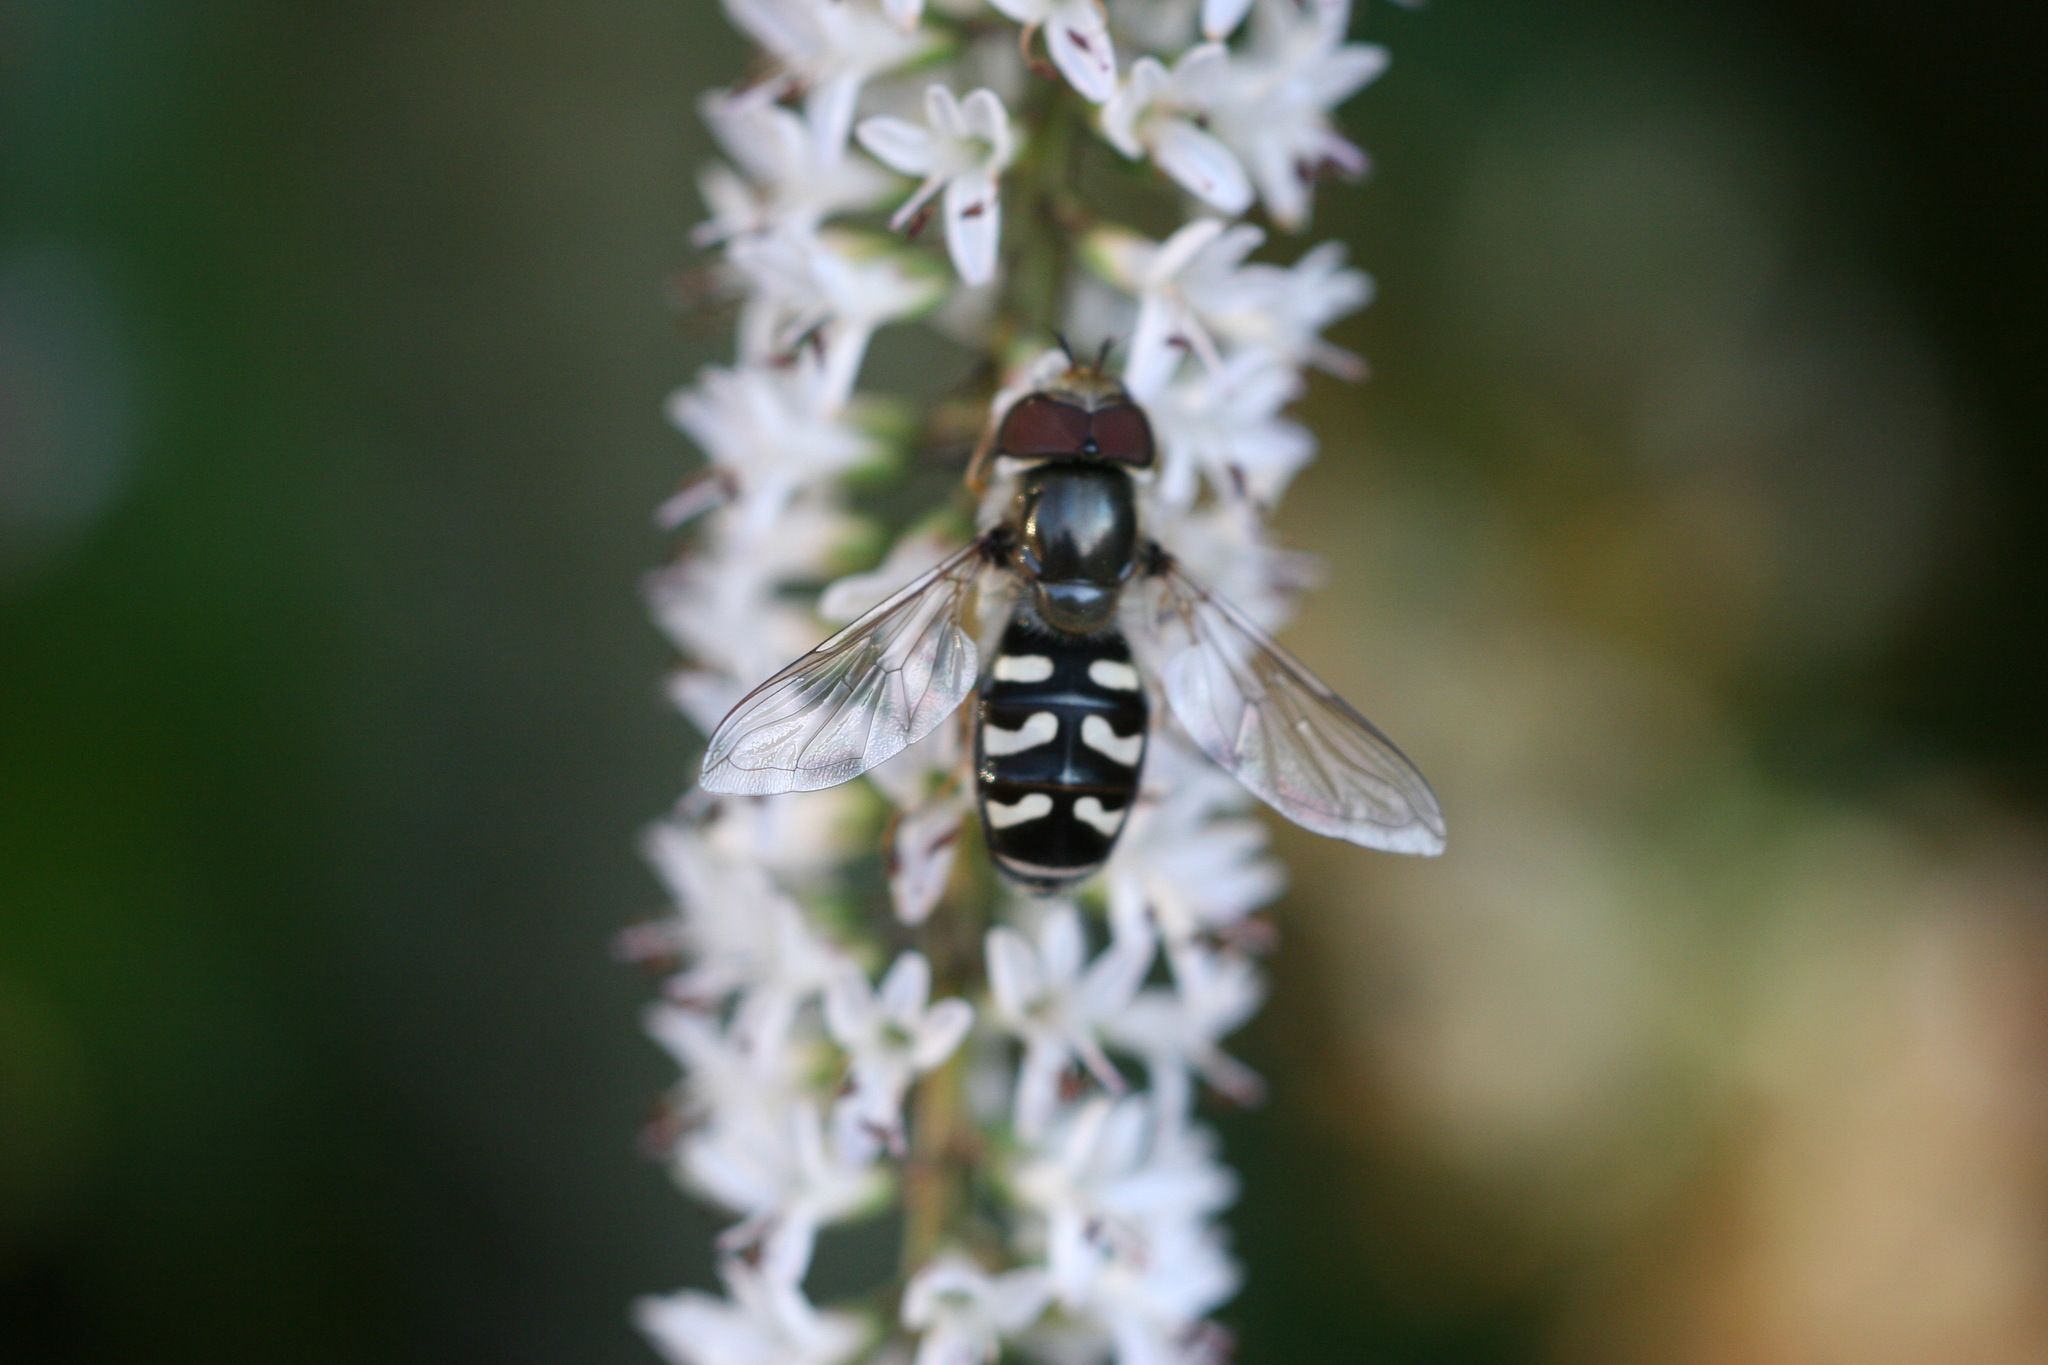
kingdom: Animalia
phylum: Arthropoda
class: Insecta
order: Diptera
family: Syrphidae
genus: Scaeva
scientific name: Scaeva pyrastri
